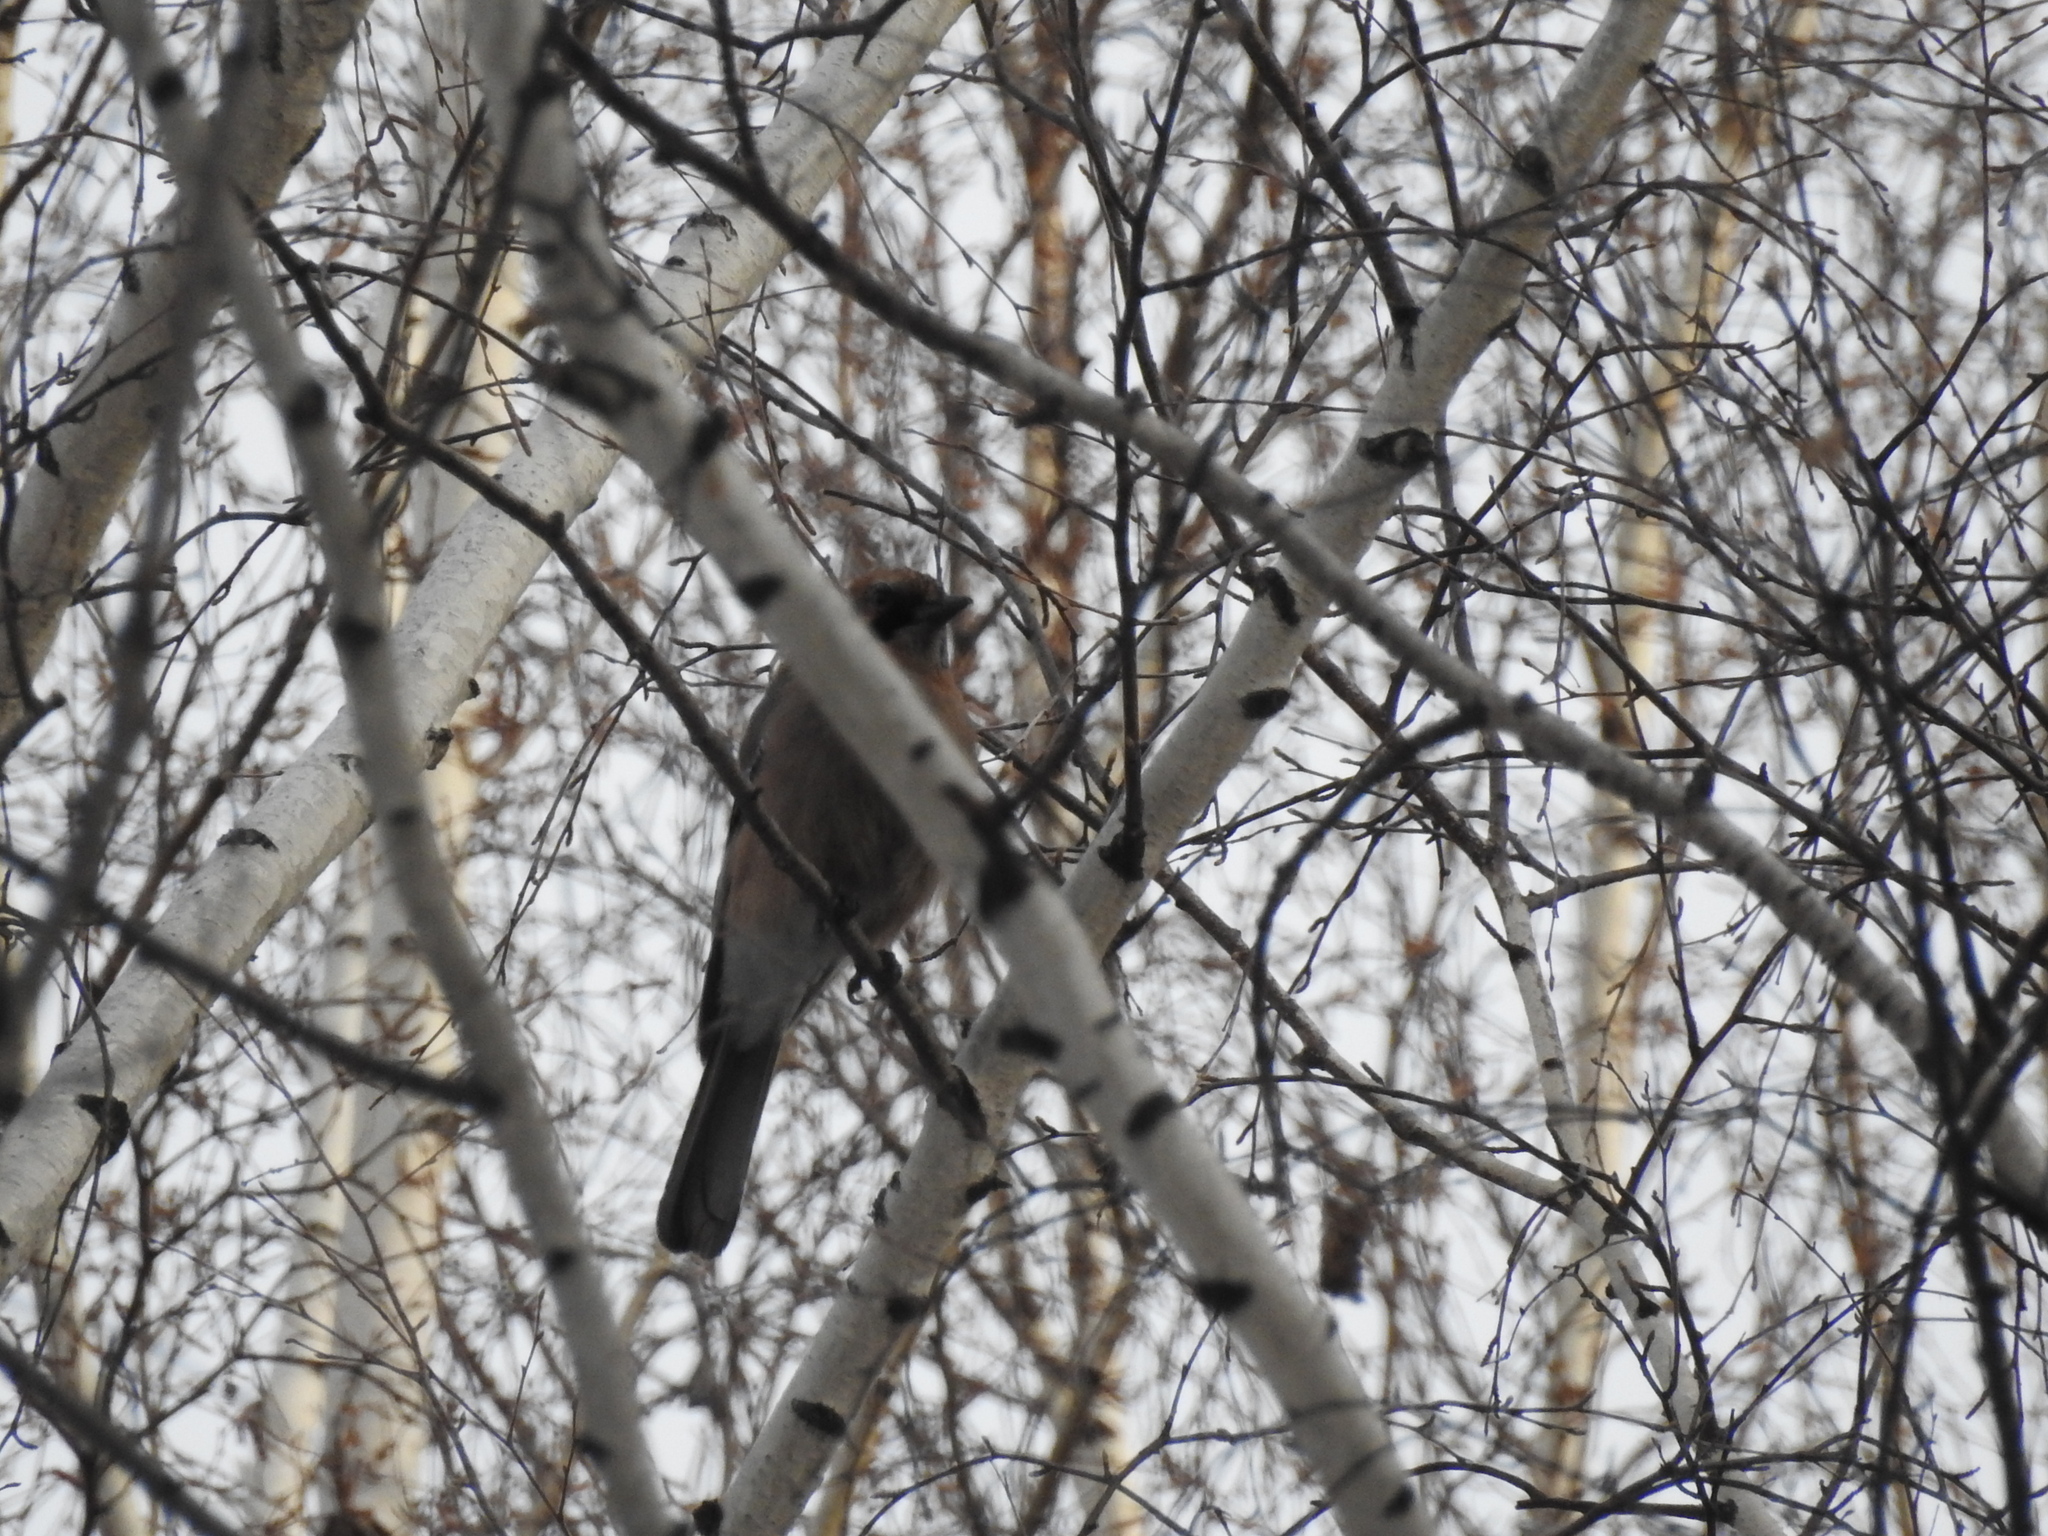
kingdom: Animalia
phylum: Chordata
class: Aves
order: Passeriformes
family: Corvidae
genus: Garrulus
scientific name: Garrulus glandarius
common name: Eurasian jay
